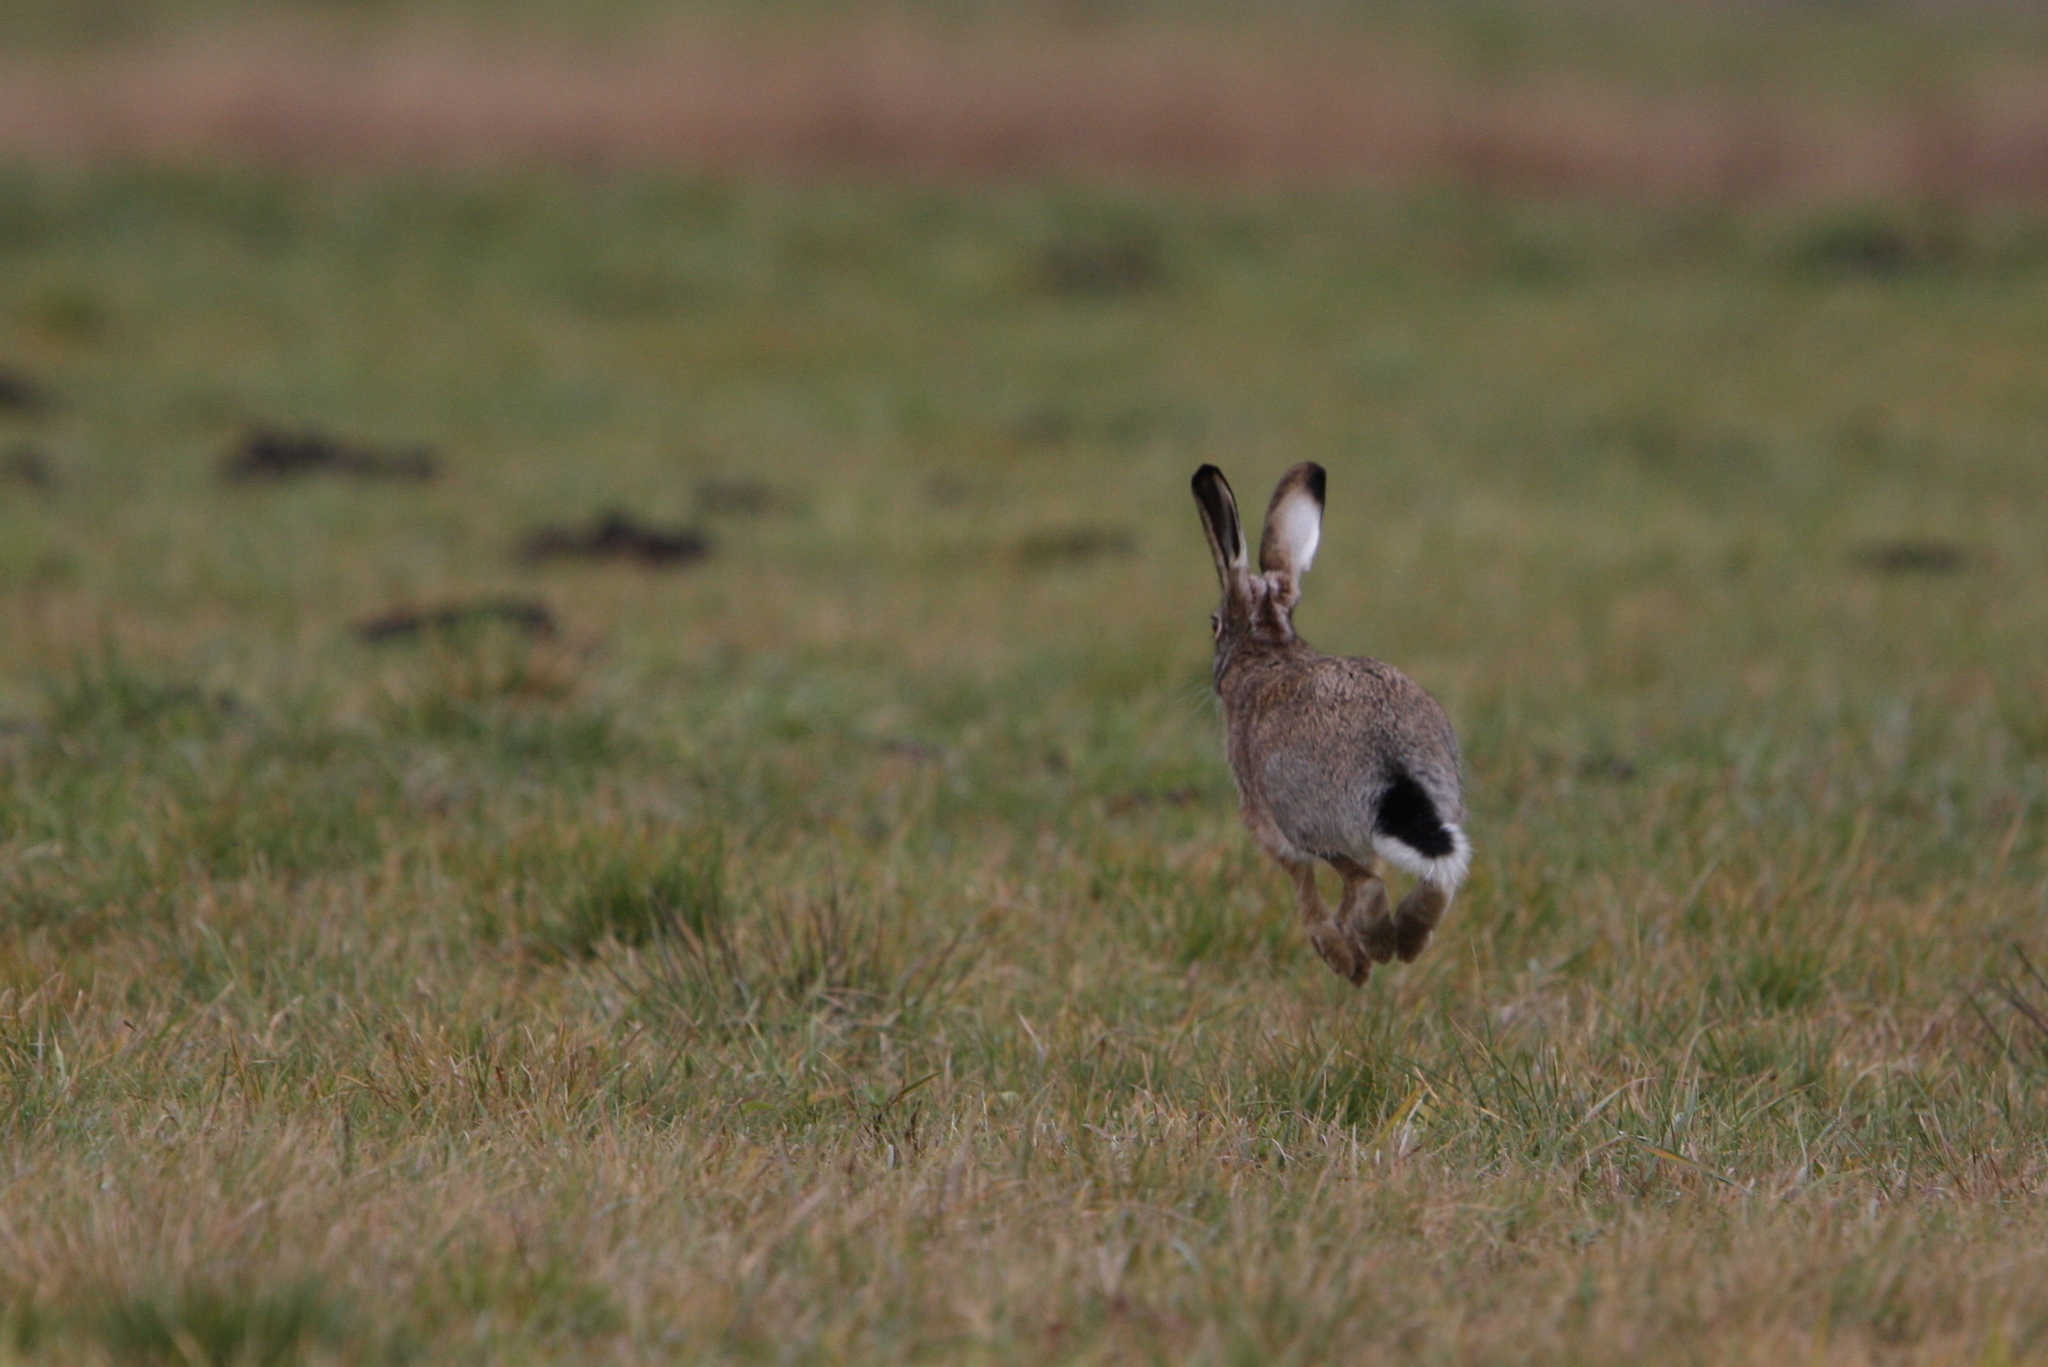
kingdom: Animalia
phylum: Chordata
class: Mammalia
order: Lagomorpha
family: Leporidae
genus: Lepus
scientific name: Lepus europaeus
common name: European hare
